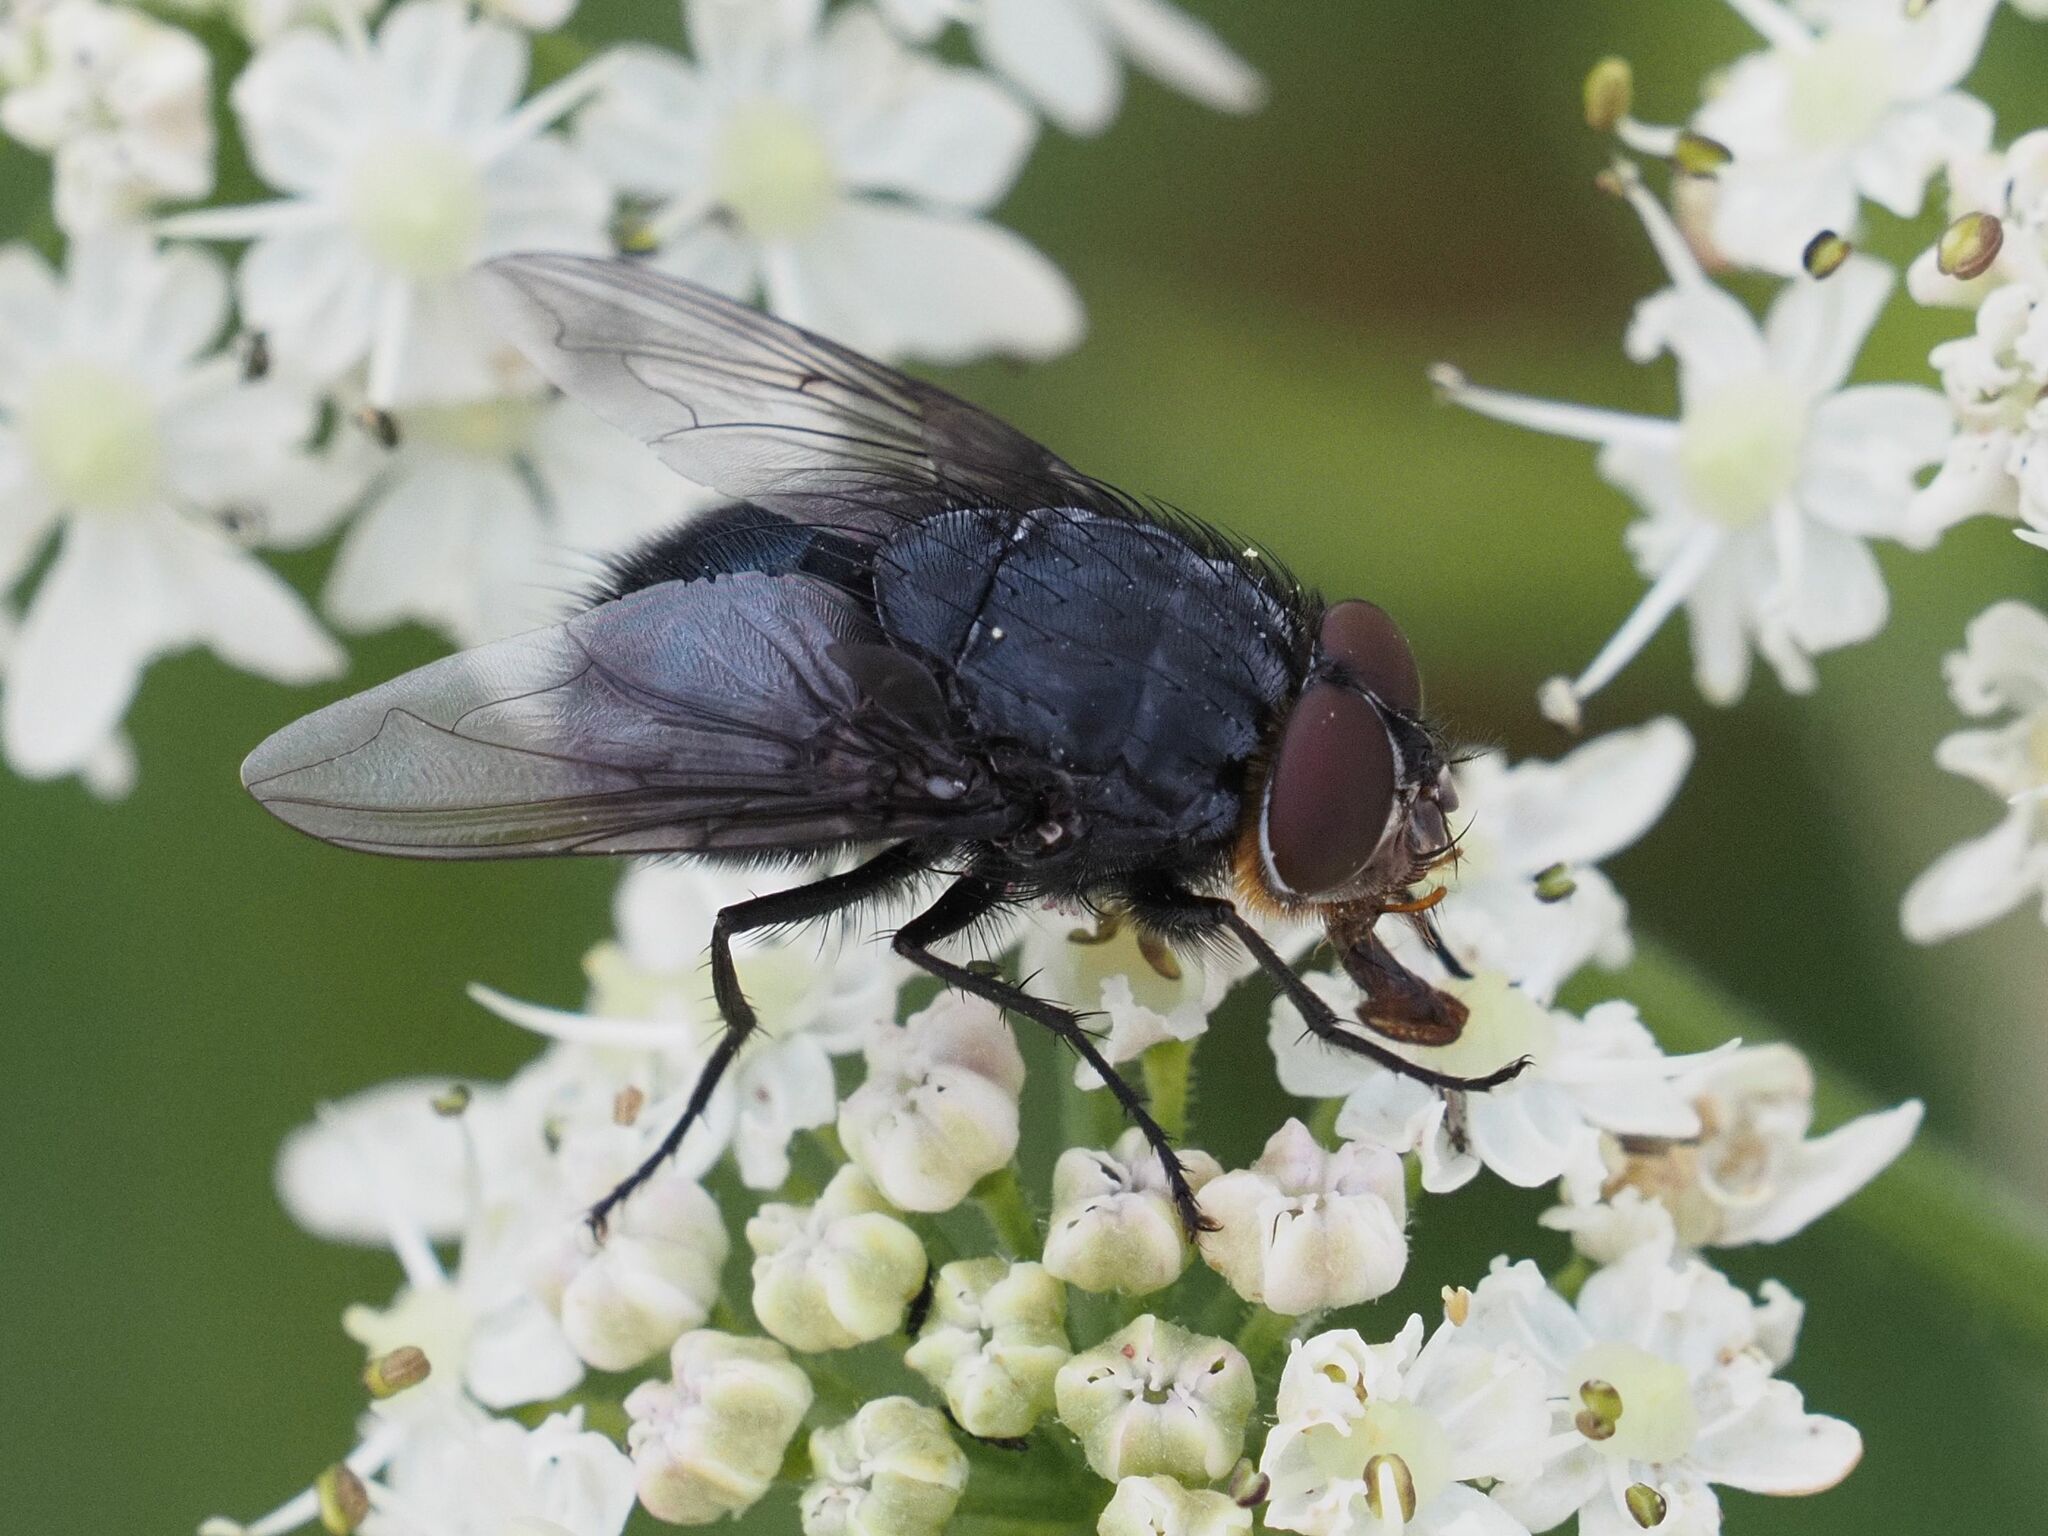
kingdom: Animalia
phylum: Arthropoda
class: Insecta
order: Diptera
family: Calliphoridae
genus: Calliphora
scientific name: Calliphora vomitoria
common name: Blue bottle fly
